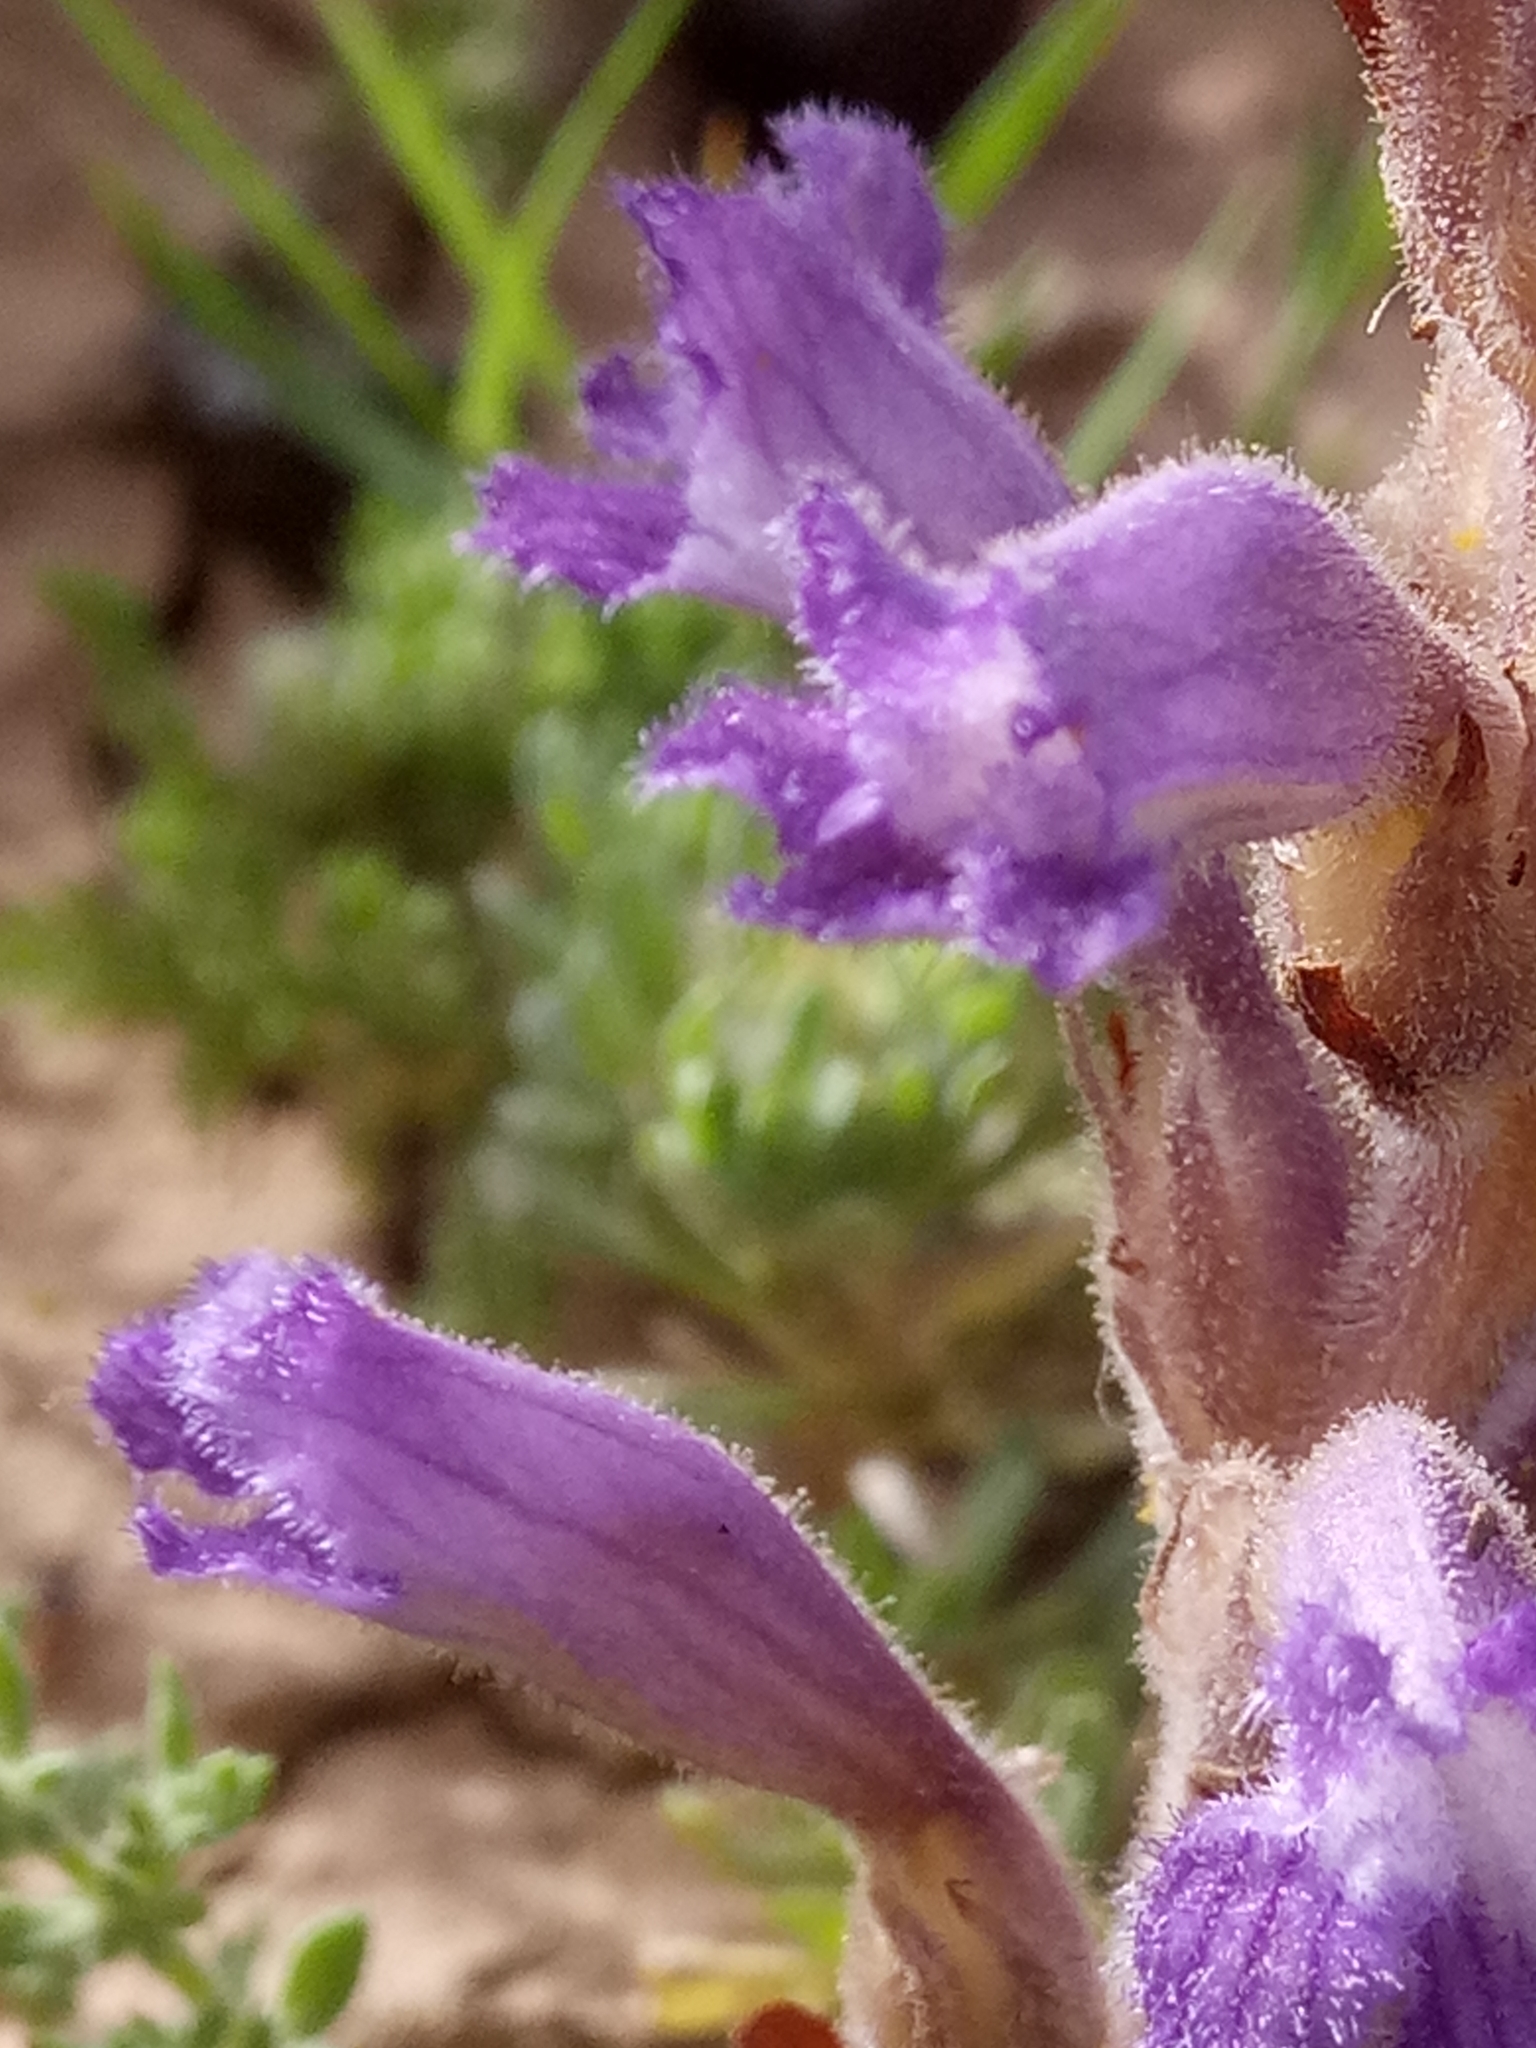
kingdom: Plantae
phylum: Tracheophyta
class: Magnoliopsida
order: Lamiales
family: Orobanchaceae
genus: Phelipanche
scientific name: Phelipanche mutelii
